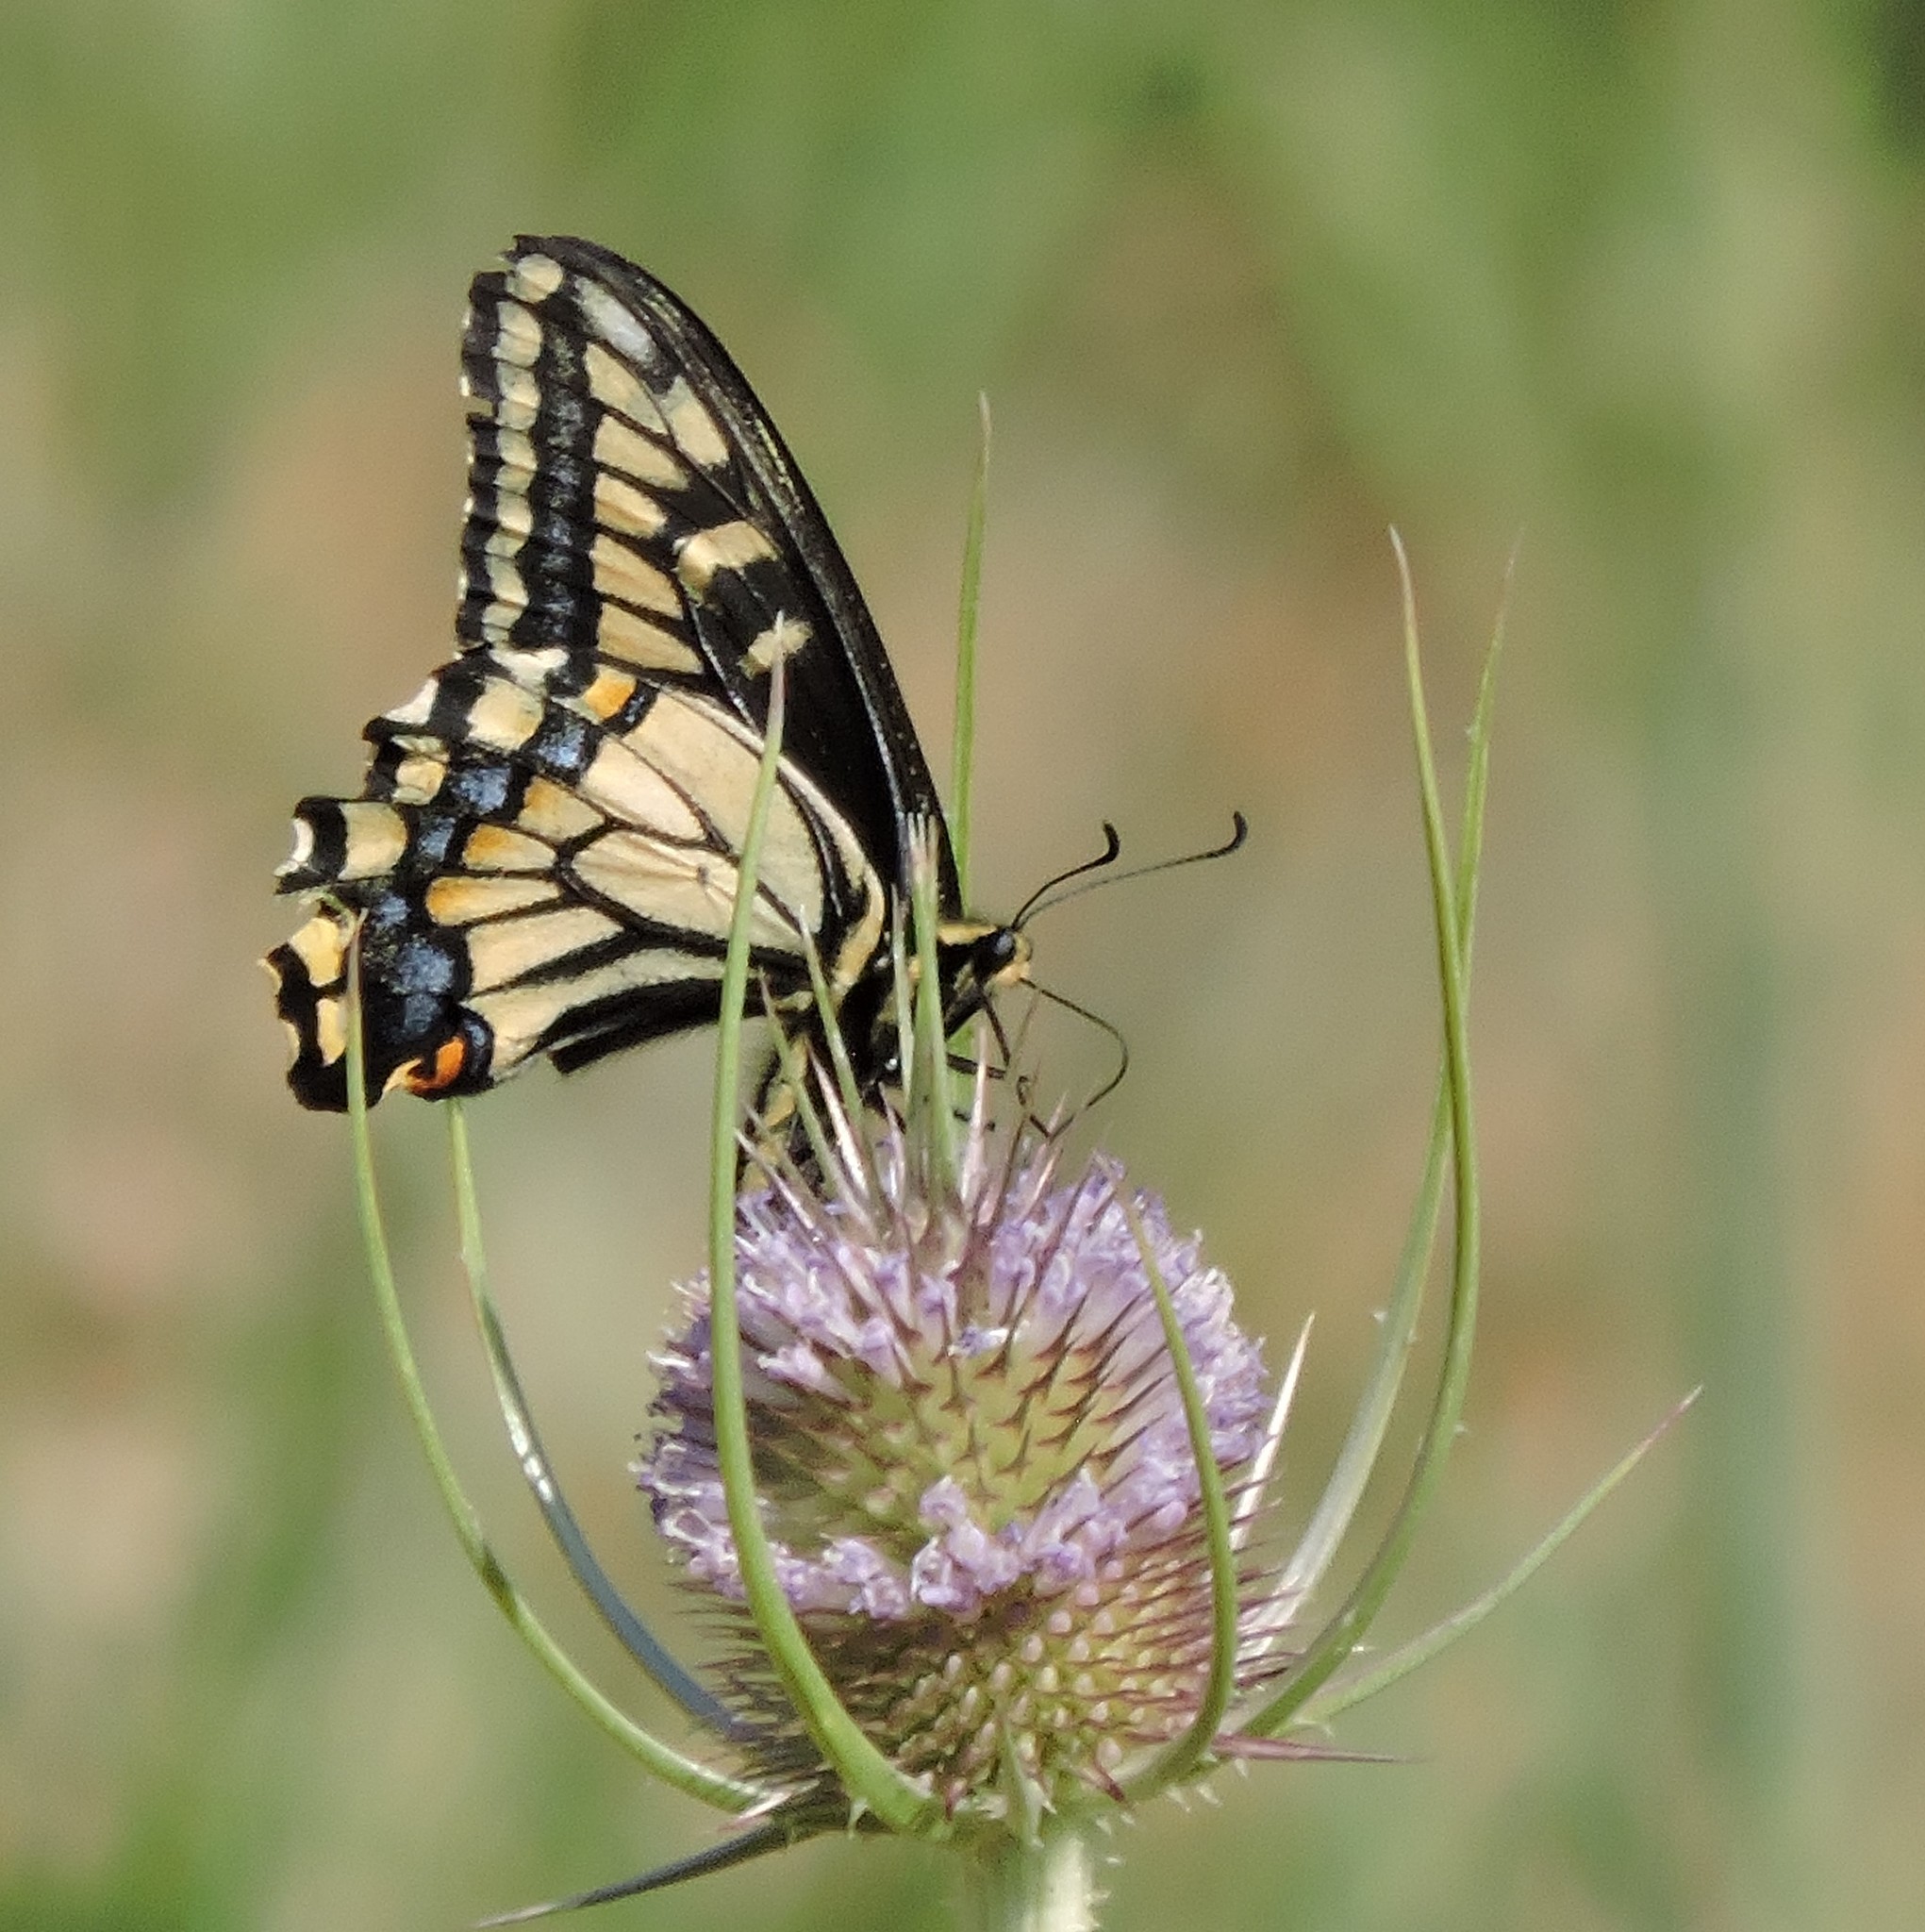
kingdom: Animalia
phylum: Arthropoda
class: Insecta
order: Lepidoptera
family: Papilionidae
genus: Papilio
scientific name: Papilio zelicaon
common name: Anise swallowtail
